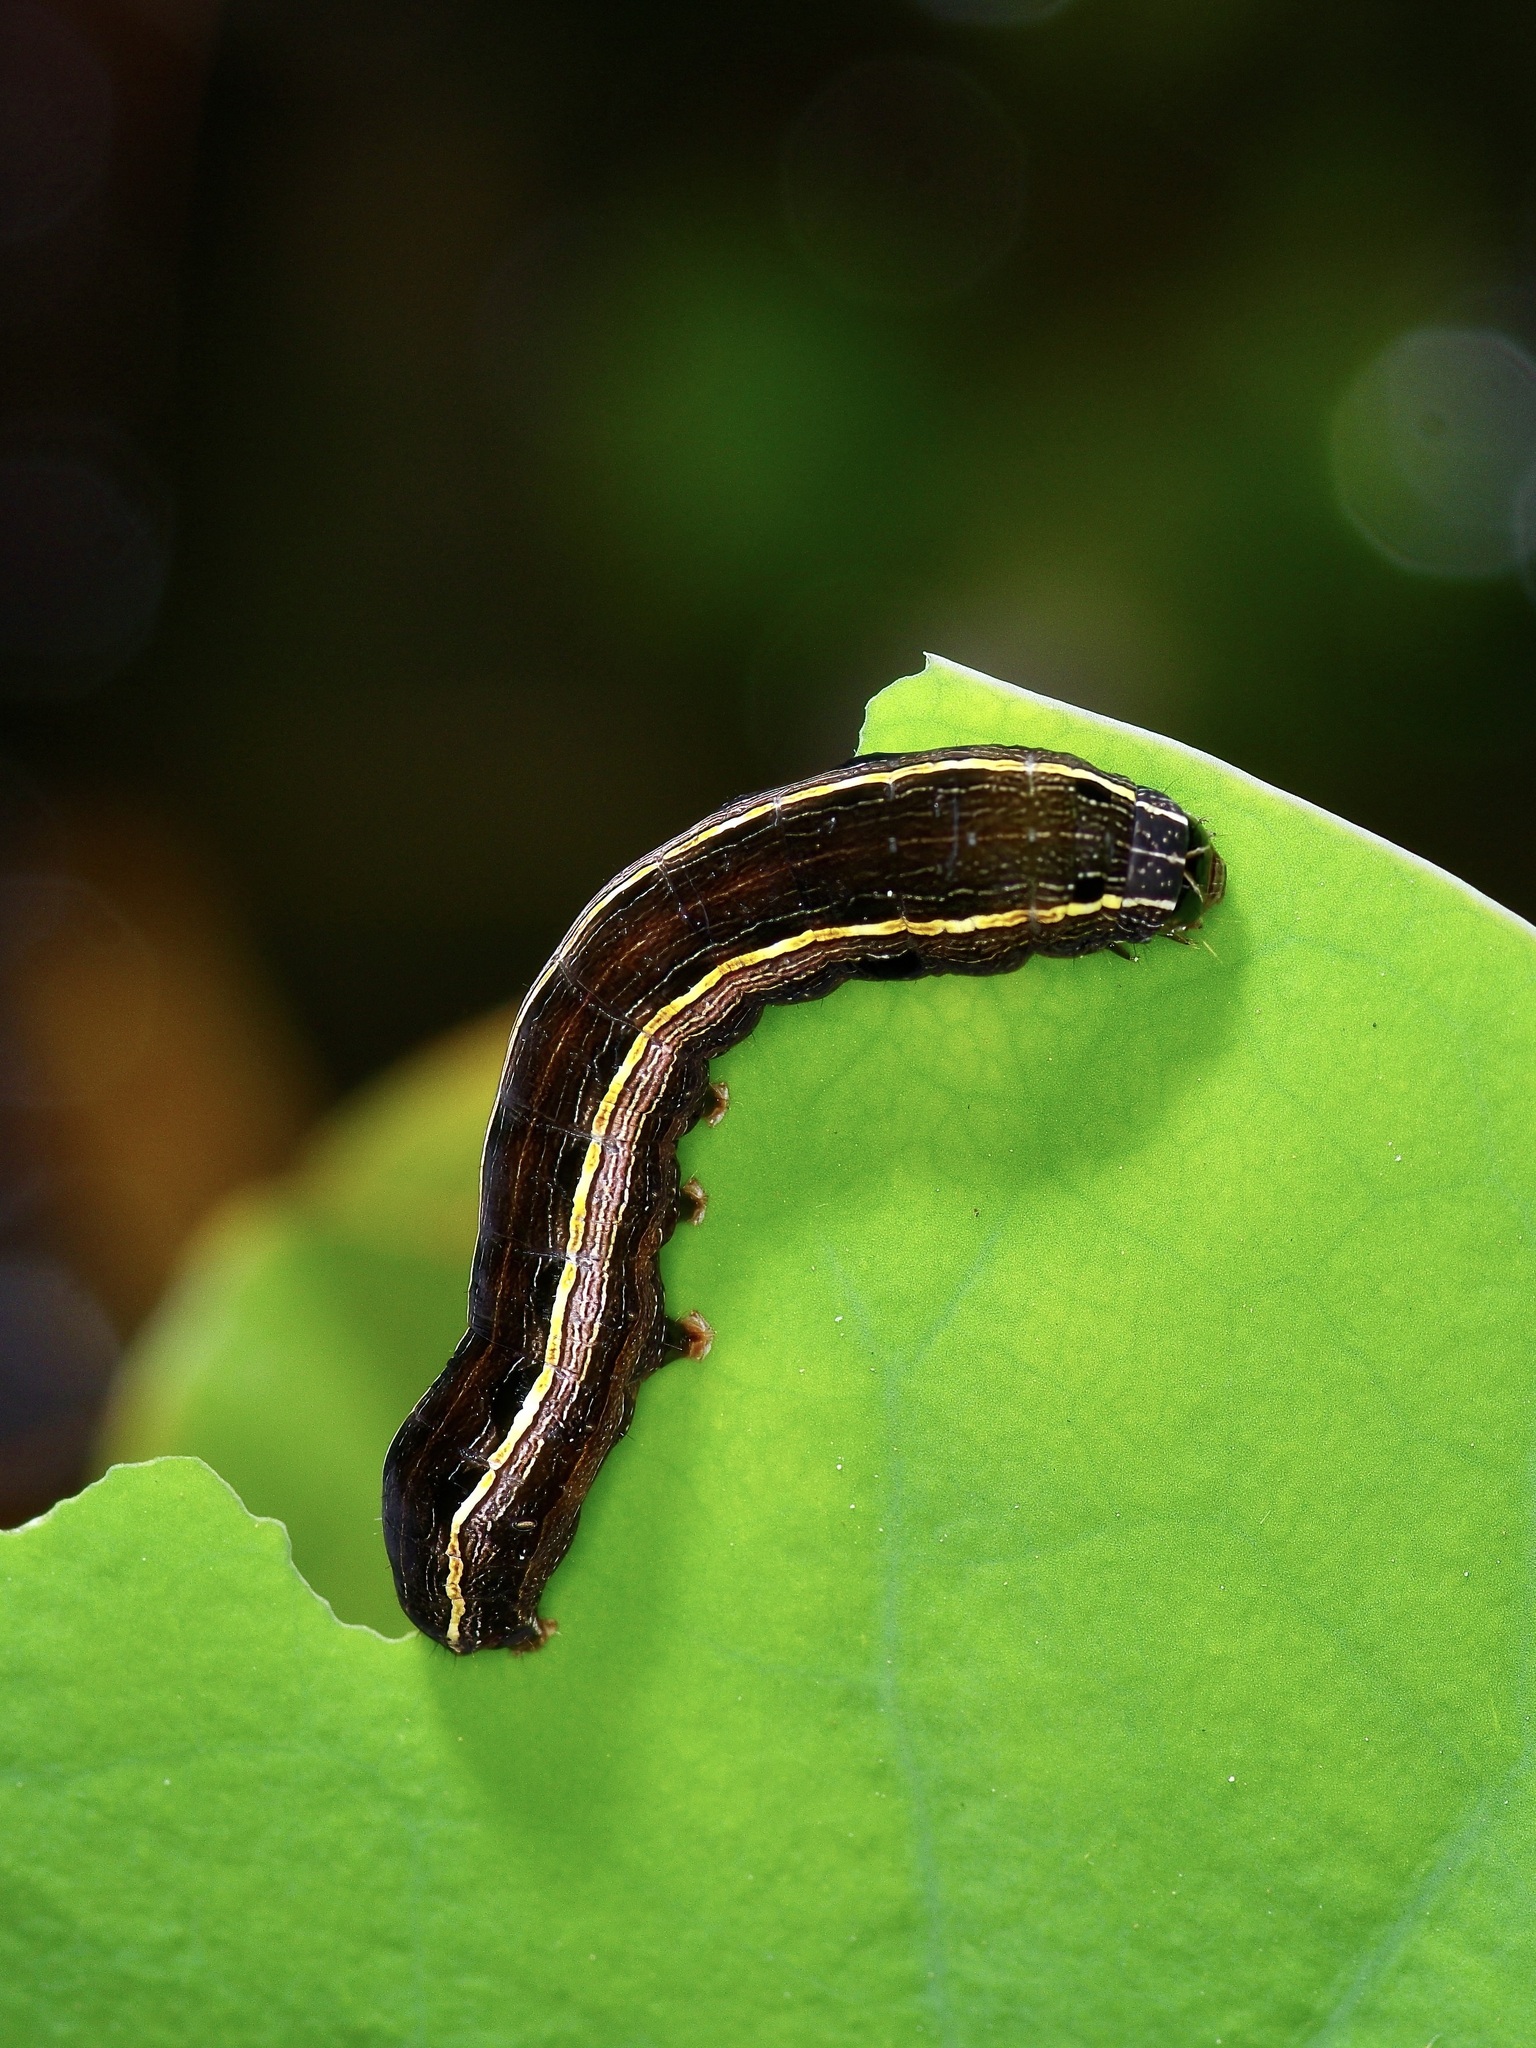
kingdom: Animalia
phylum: Arthropoda
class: Insecta
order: Lepidoptera
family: Noctuidae
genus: Spodoptera
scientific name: Spodoptera ornithogalli
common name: Yellow-striped armyworm
